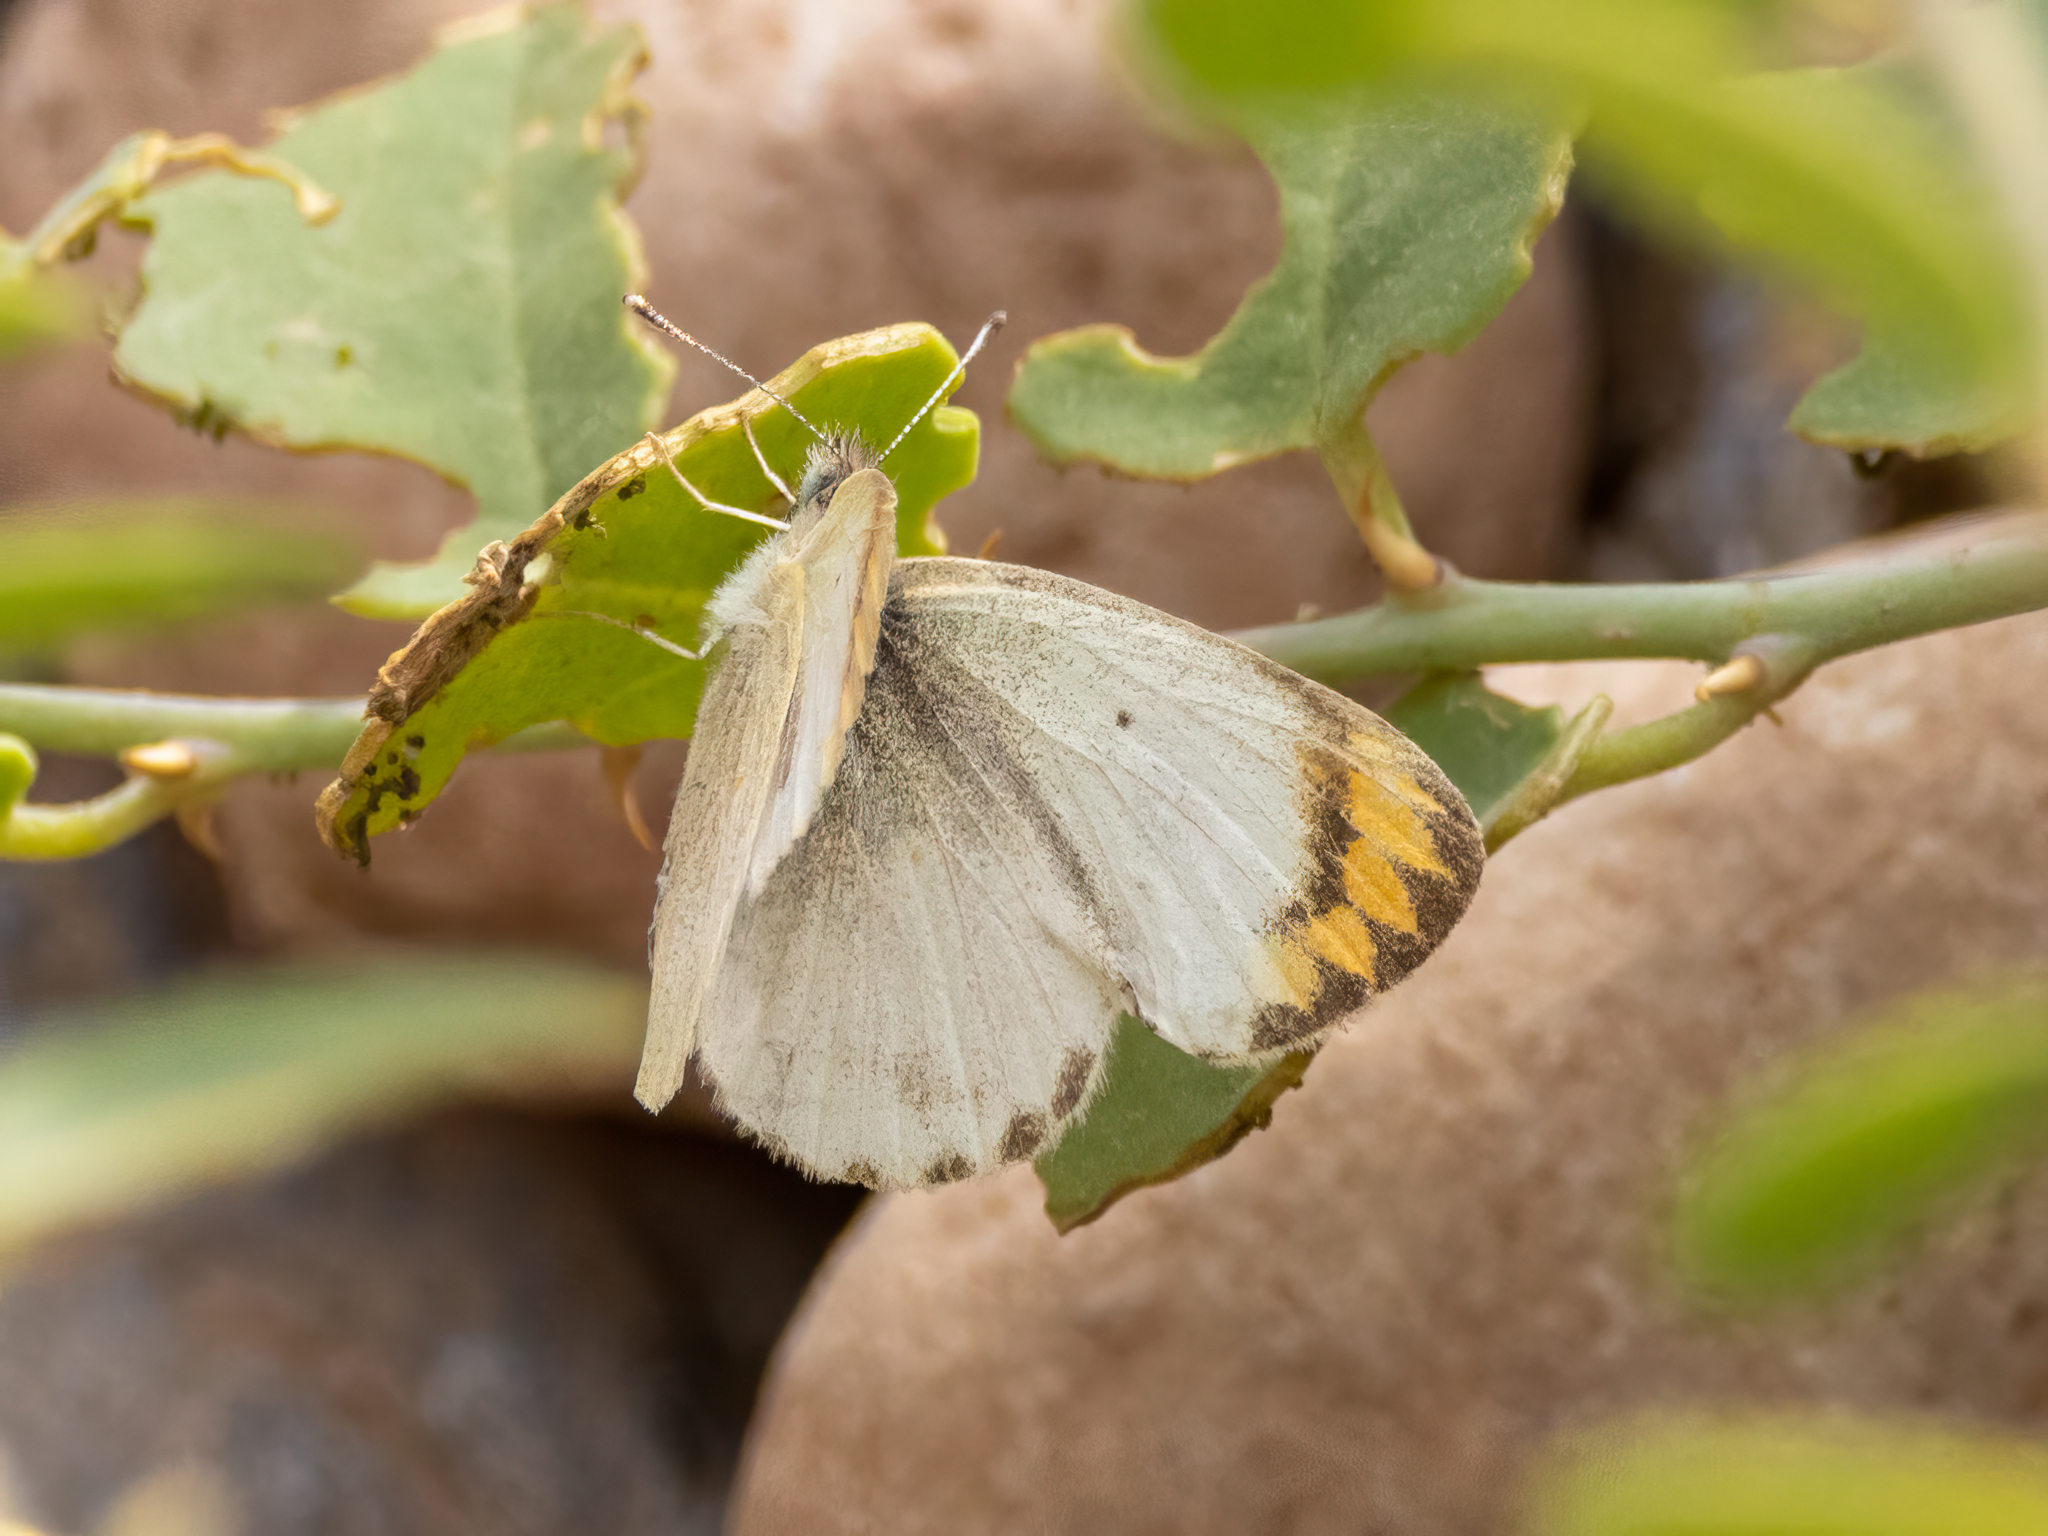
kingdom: Animalia
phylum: Arthropoda
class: Insecta
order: Lepidoptera
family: Pieridae
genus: Colotis
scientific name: Colotis evagore
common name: Desert orange-tip
